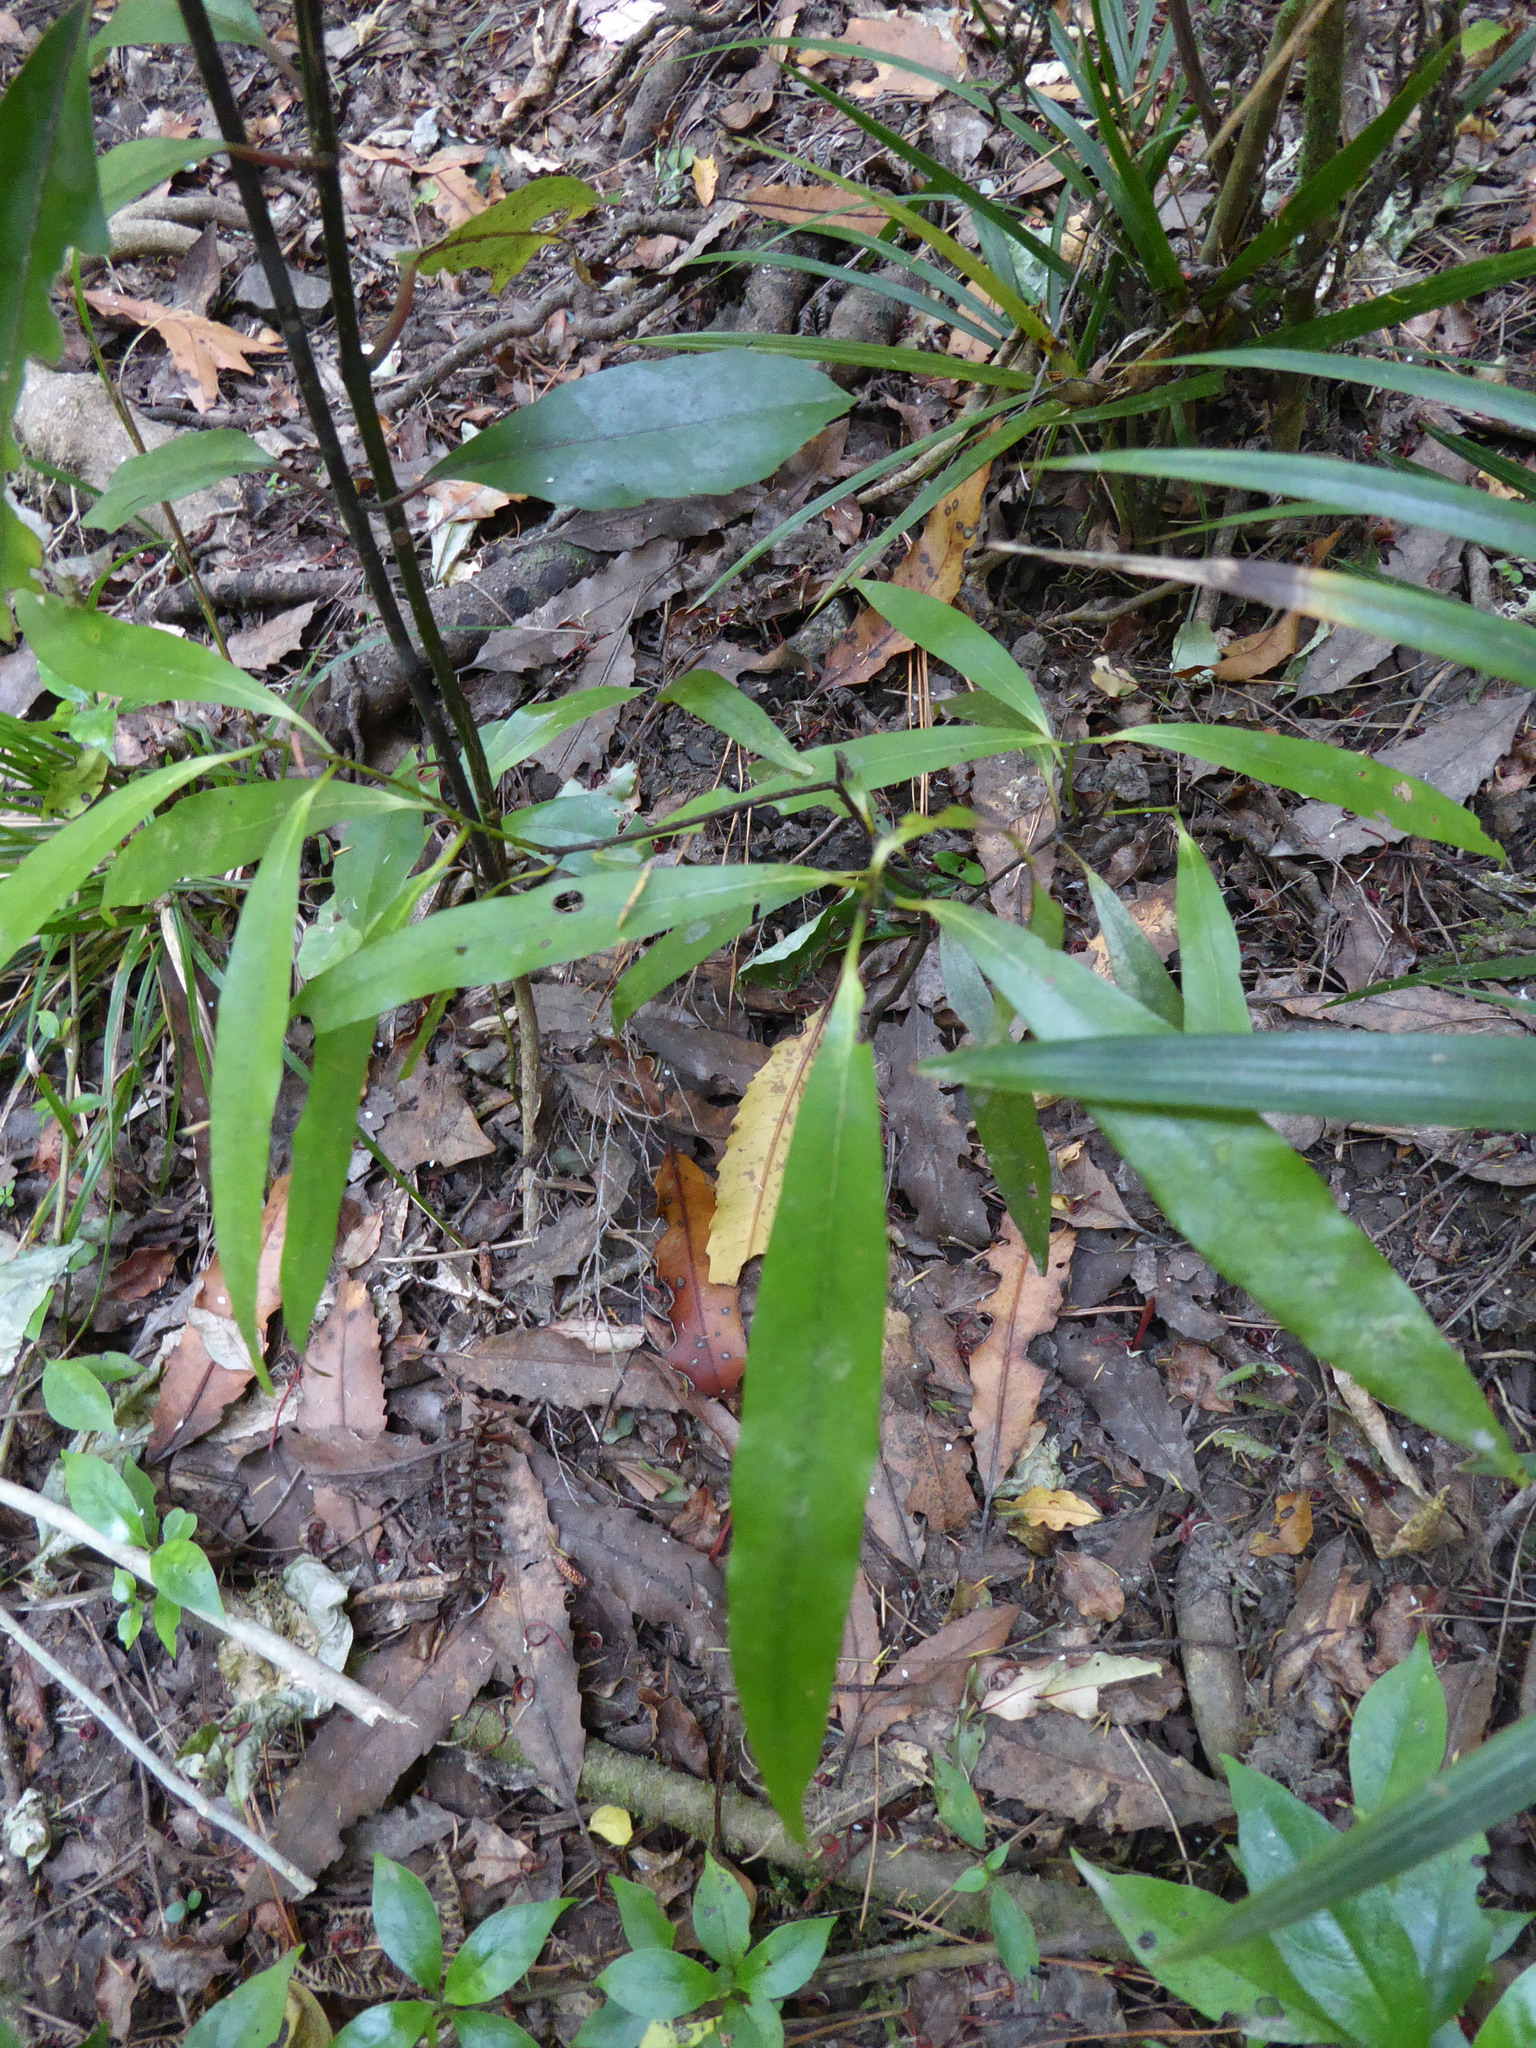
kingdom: Plantae
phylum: Tracheophyta
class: Magnoliopsida
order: Laurales
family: Lauraceae
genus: Beilschmiedia
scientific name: Beilschmiedia tawa
